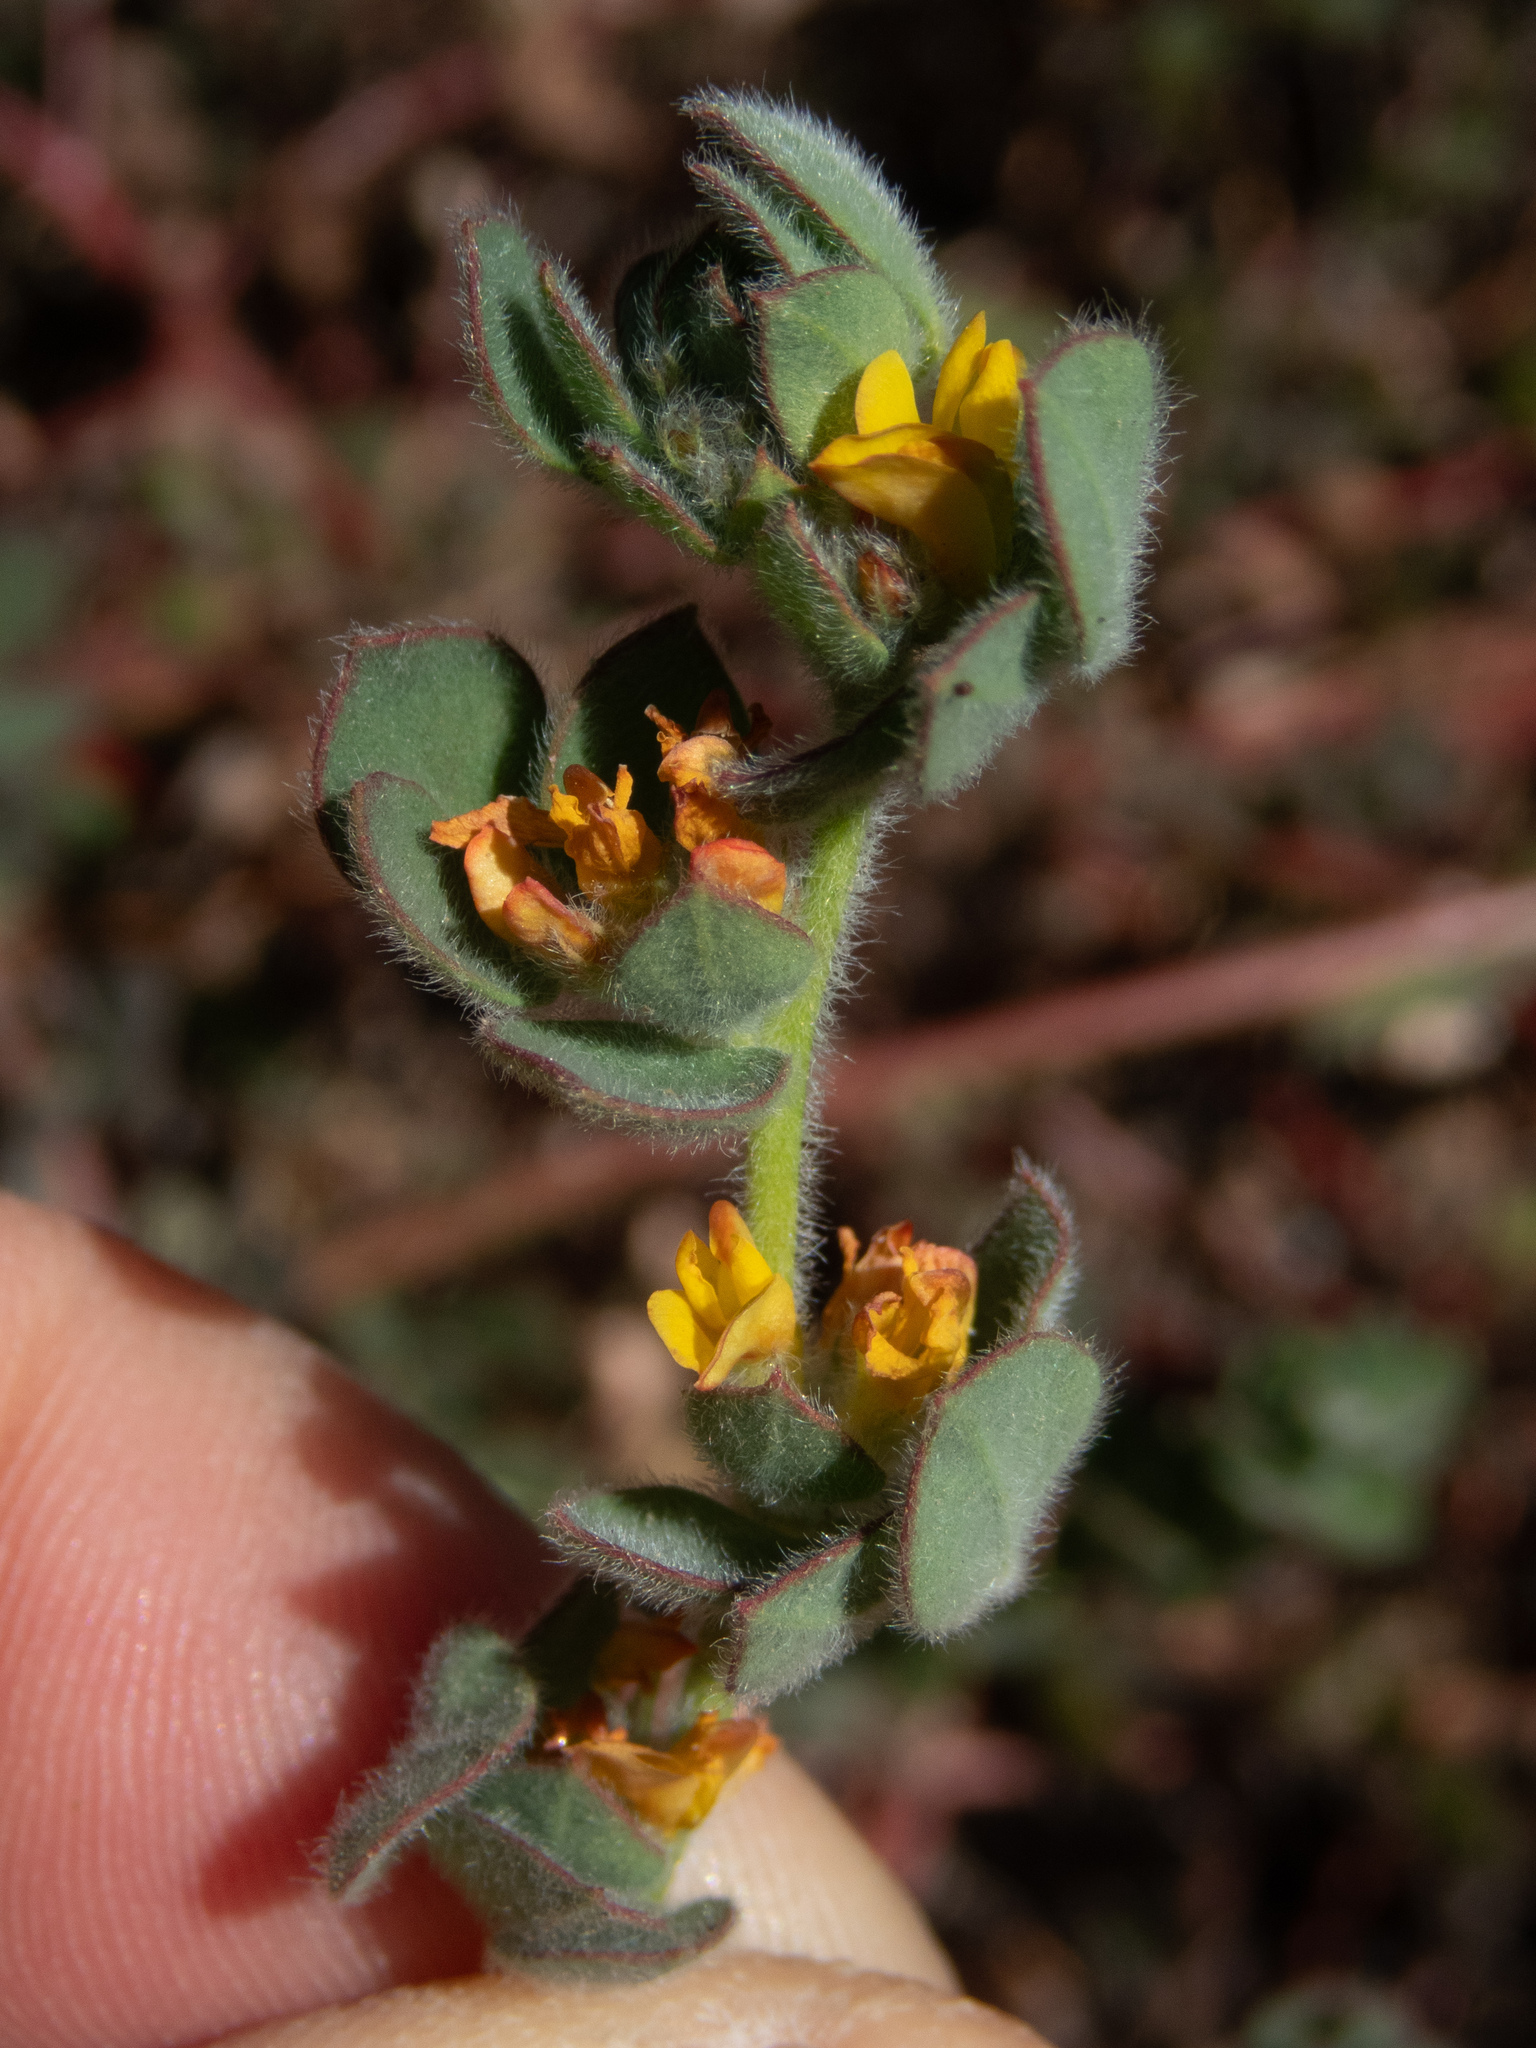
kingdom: Plantae
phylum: Tracheophyta
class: Magnoliopsida
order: Fabales
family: Fabaceae
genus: Acmispon
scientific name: Acmispon tomentosus
